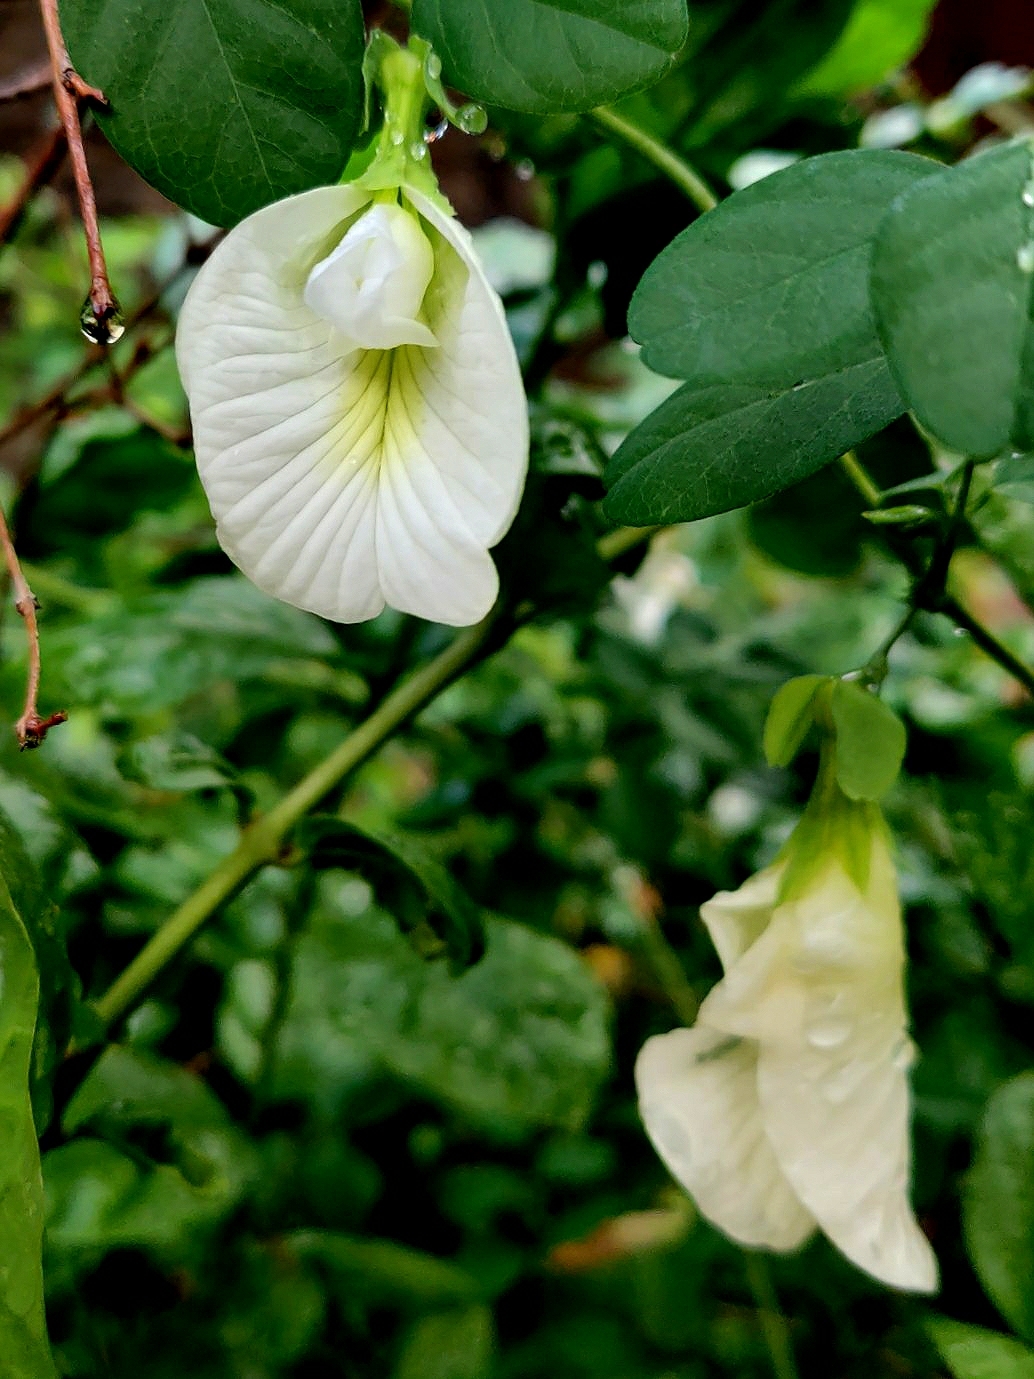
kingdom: Plantae
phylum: Tracheophyta
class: Magnoliopsida
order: Fabales
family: Fabaceae
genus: Clitoria
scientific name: Clitoria ternatea
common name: Asian pigeonwings
